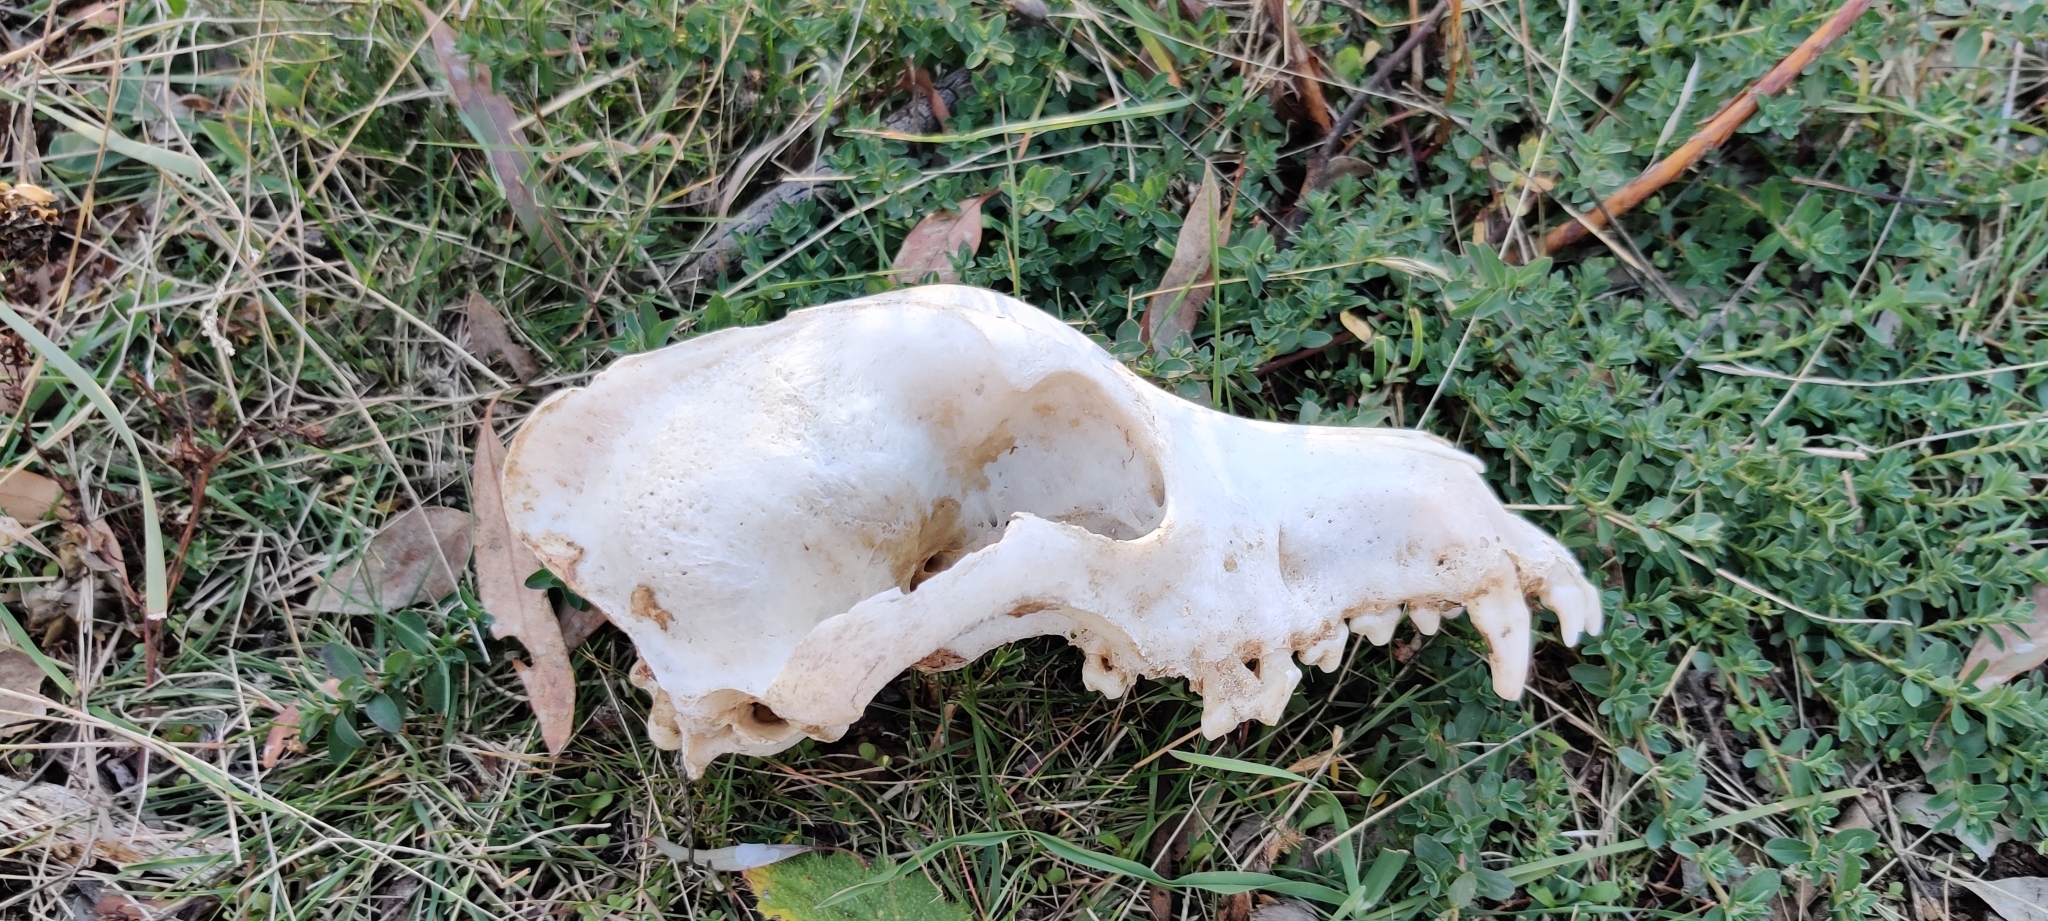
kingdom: Animalia
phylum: Chordata
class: Mammalia
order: Carnivora
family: Canidae
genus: Canis
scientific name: Canis lupus
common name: Gray wolf
